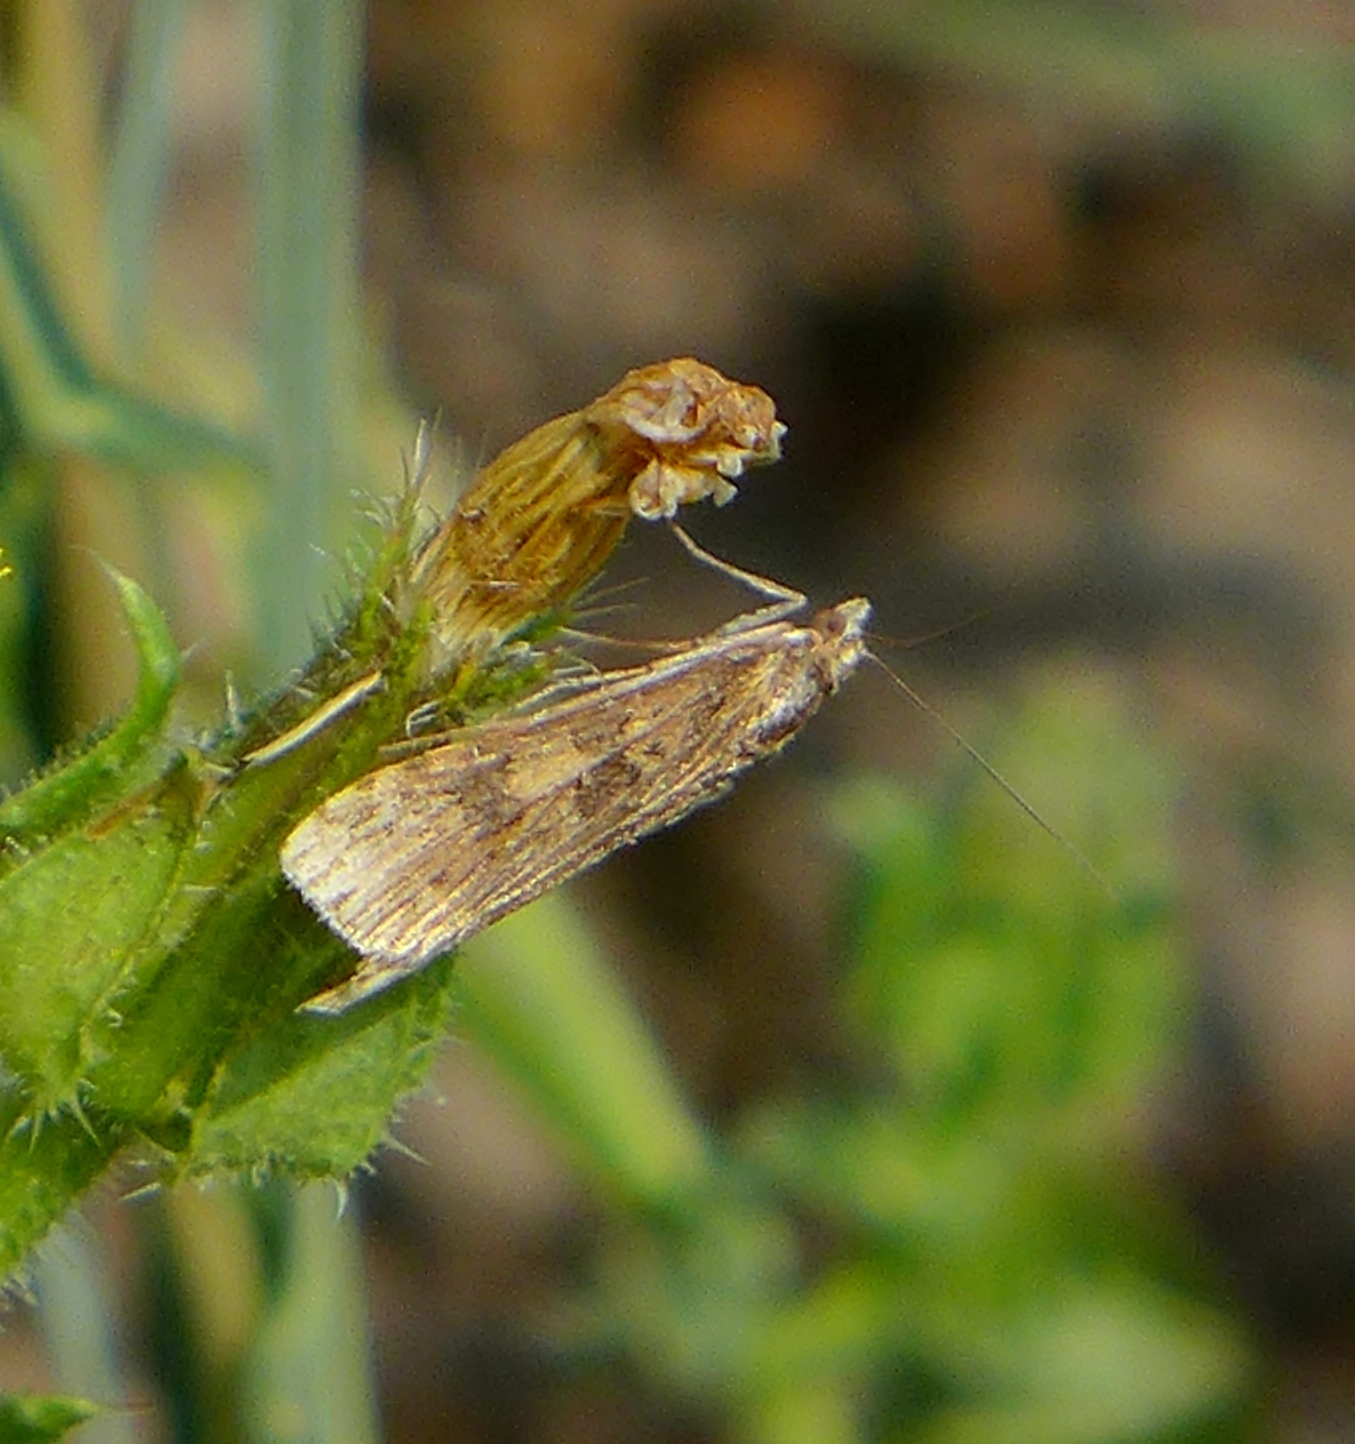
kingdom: Animalia
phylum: Arthropoda
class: Insecta
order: Lepidoptera
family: Crambidae
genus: Nomophila
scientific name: Nomophila nearctica
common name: American rush veneer
